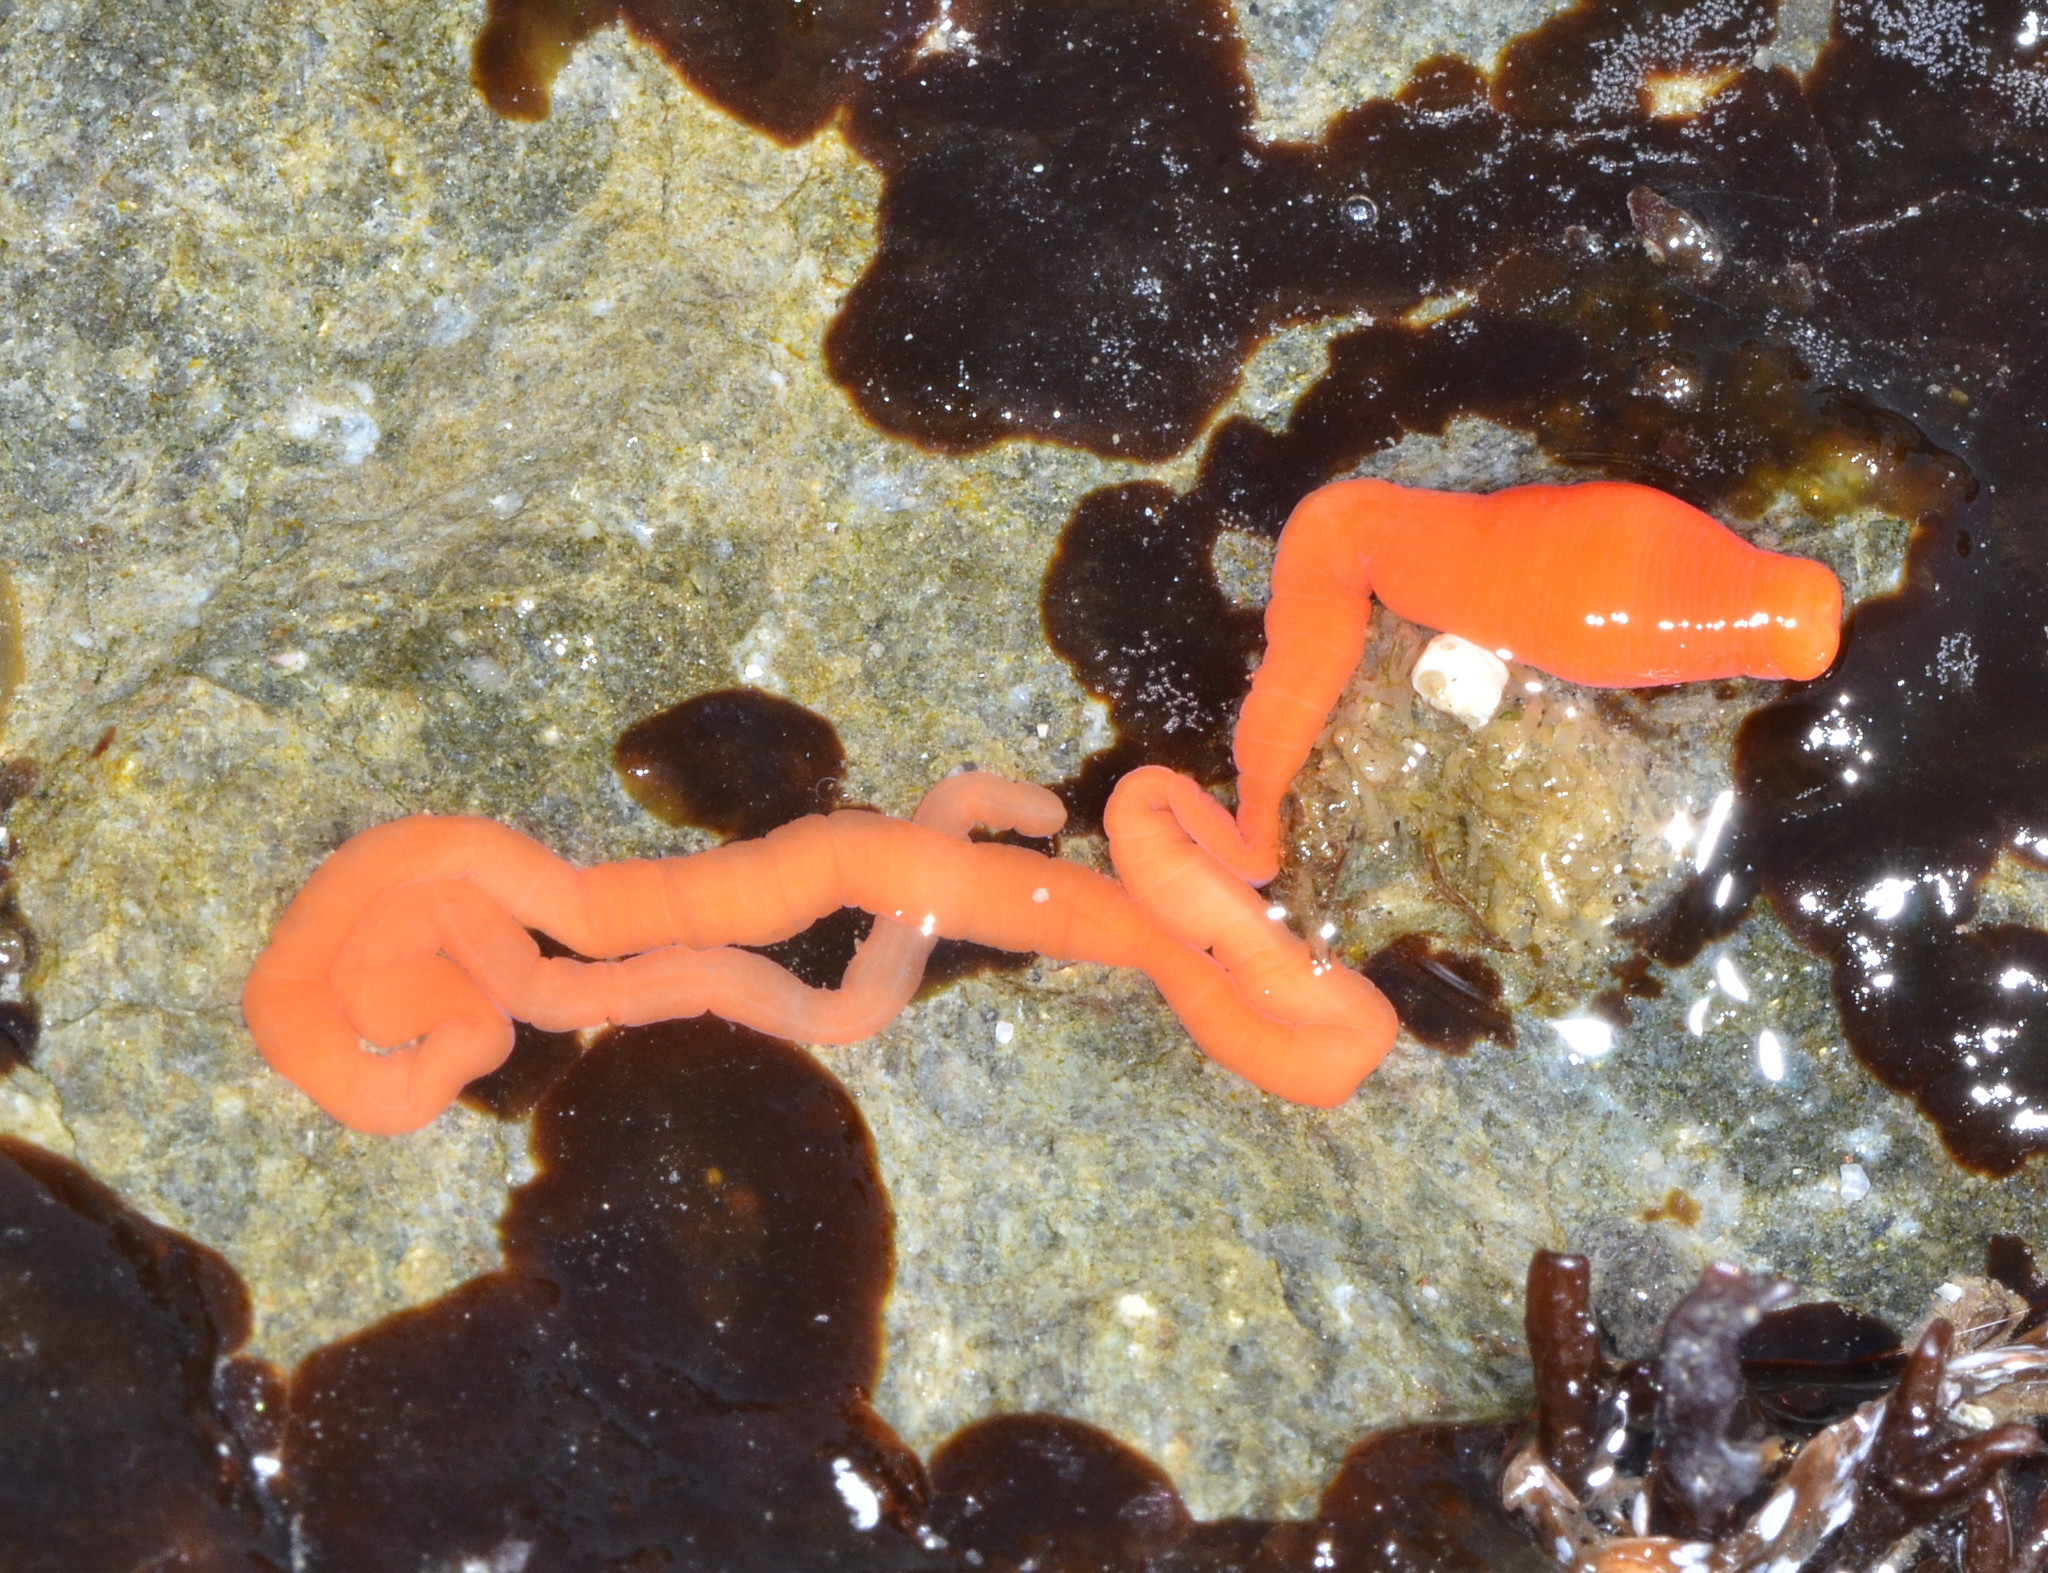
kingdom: Animalia
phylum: Nemertea
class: Palaeonemertea
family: Tubulanidae
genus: Tubulanus
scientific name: Tubulanus polymorphus
